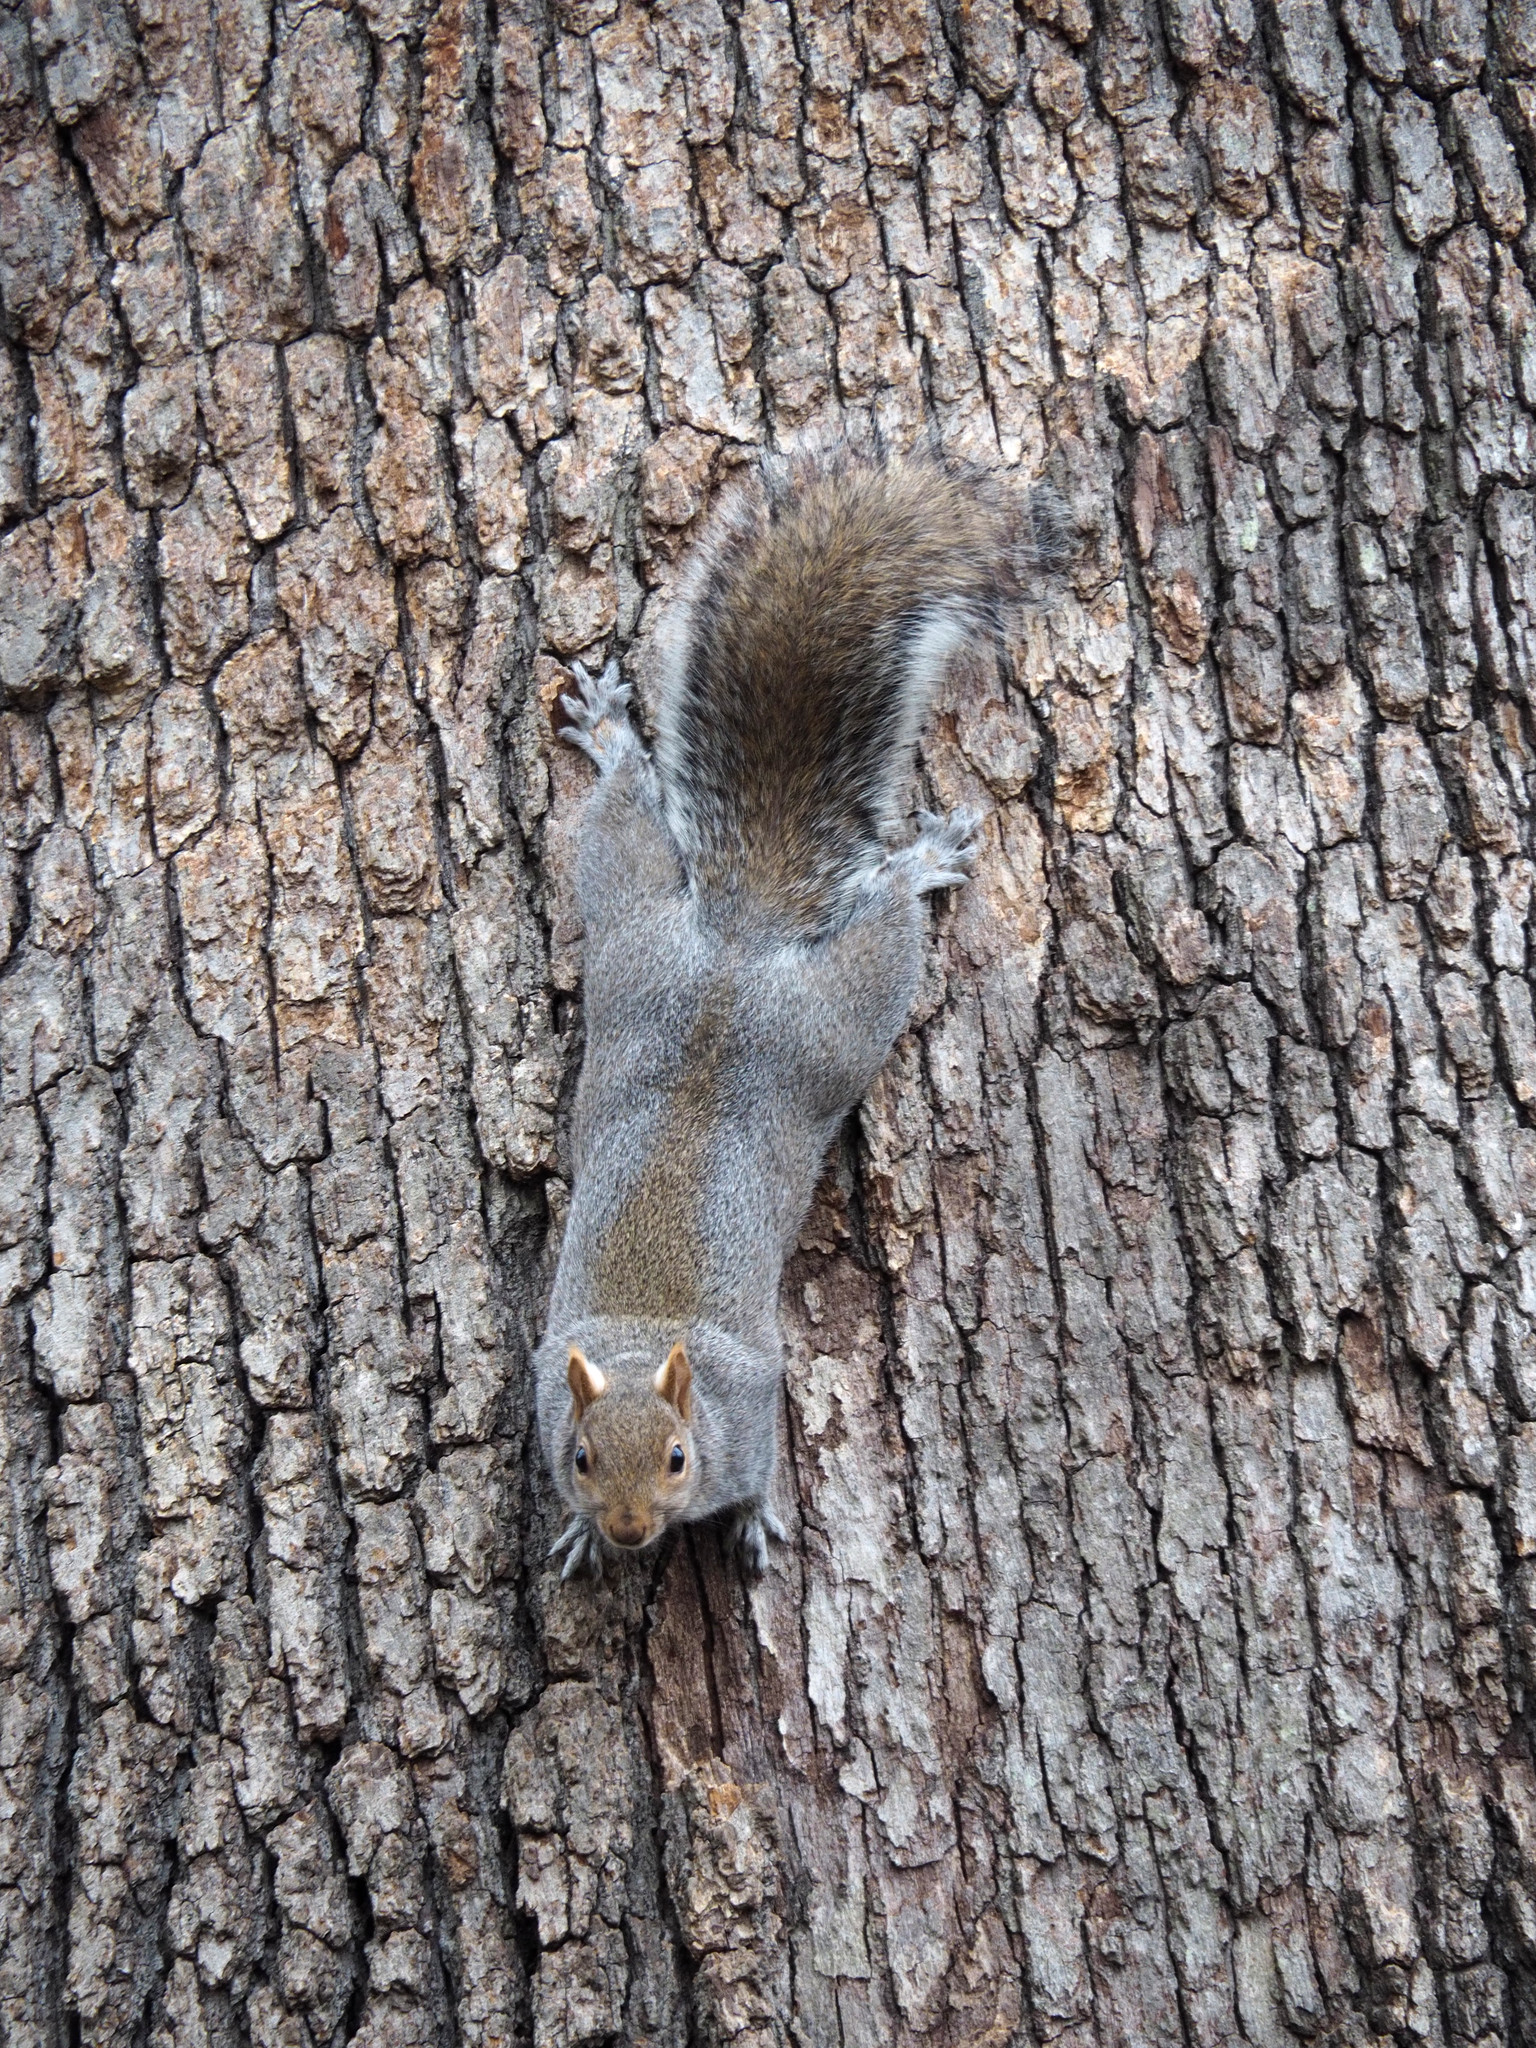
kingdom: Animalia
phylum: Chordata
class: Mammalia
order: Rodentia
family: Sciuridae
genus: Sciurus
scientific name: Sciurus carolinensis
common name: Eastern gray squirrel
